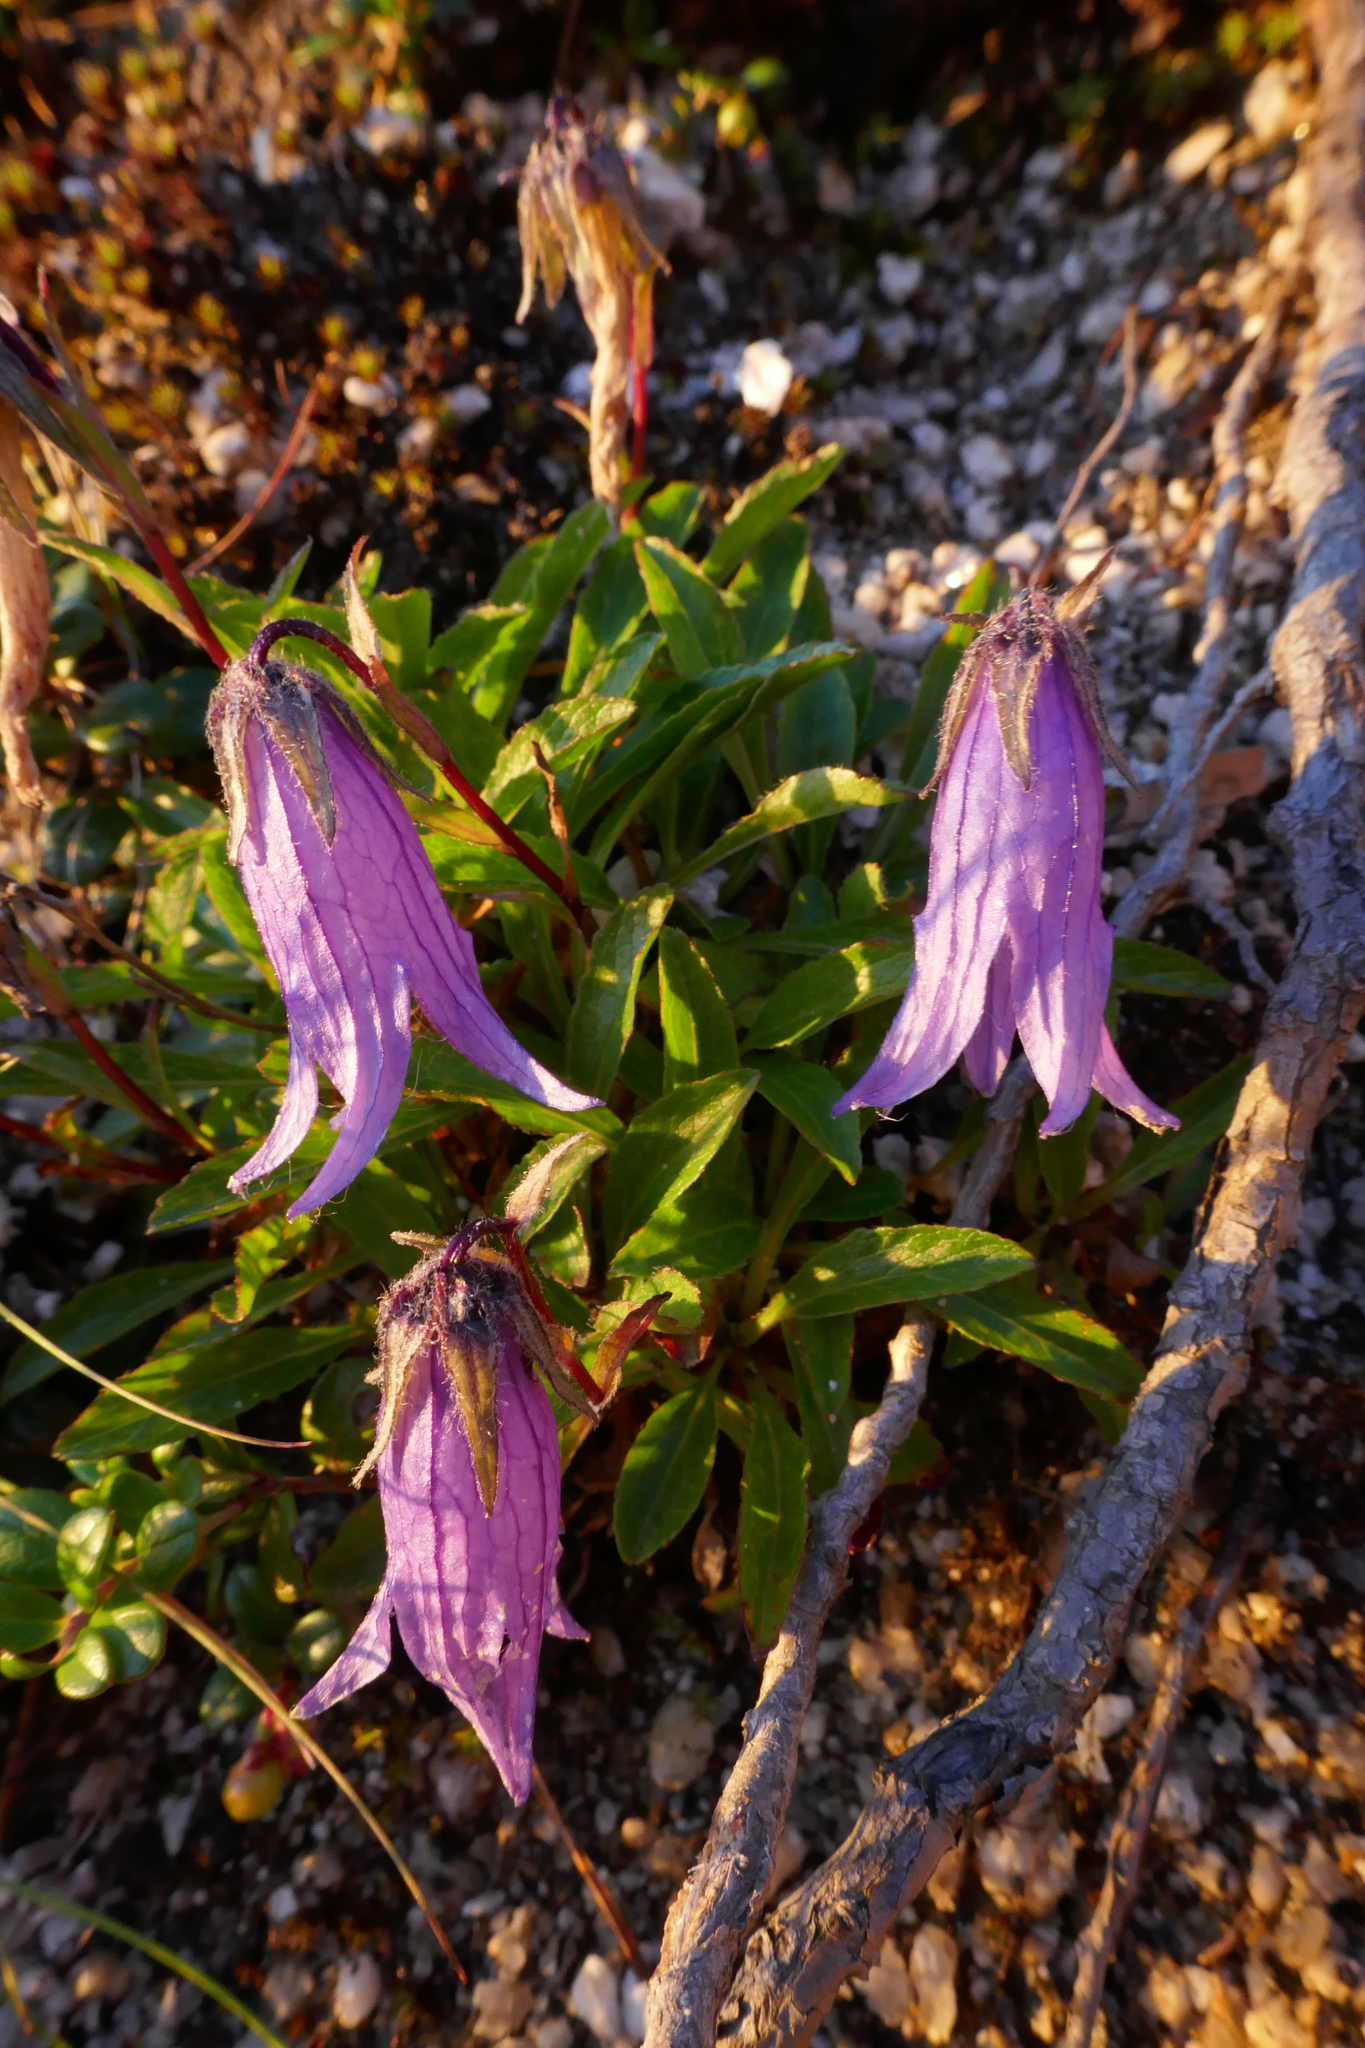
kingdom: Plantae
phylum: Tracheophyta
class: Magnoliopsida
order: Asterales
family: Campanulaceae
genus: Campanula
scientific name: Campanula dasyantha
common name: Hairyflower bellflower
